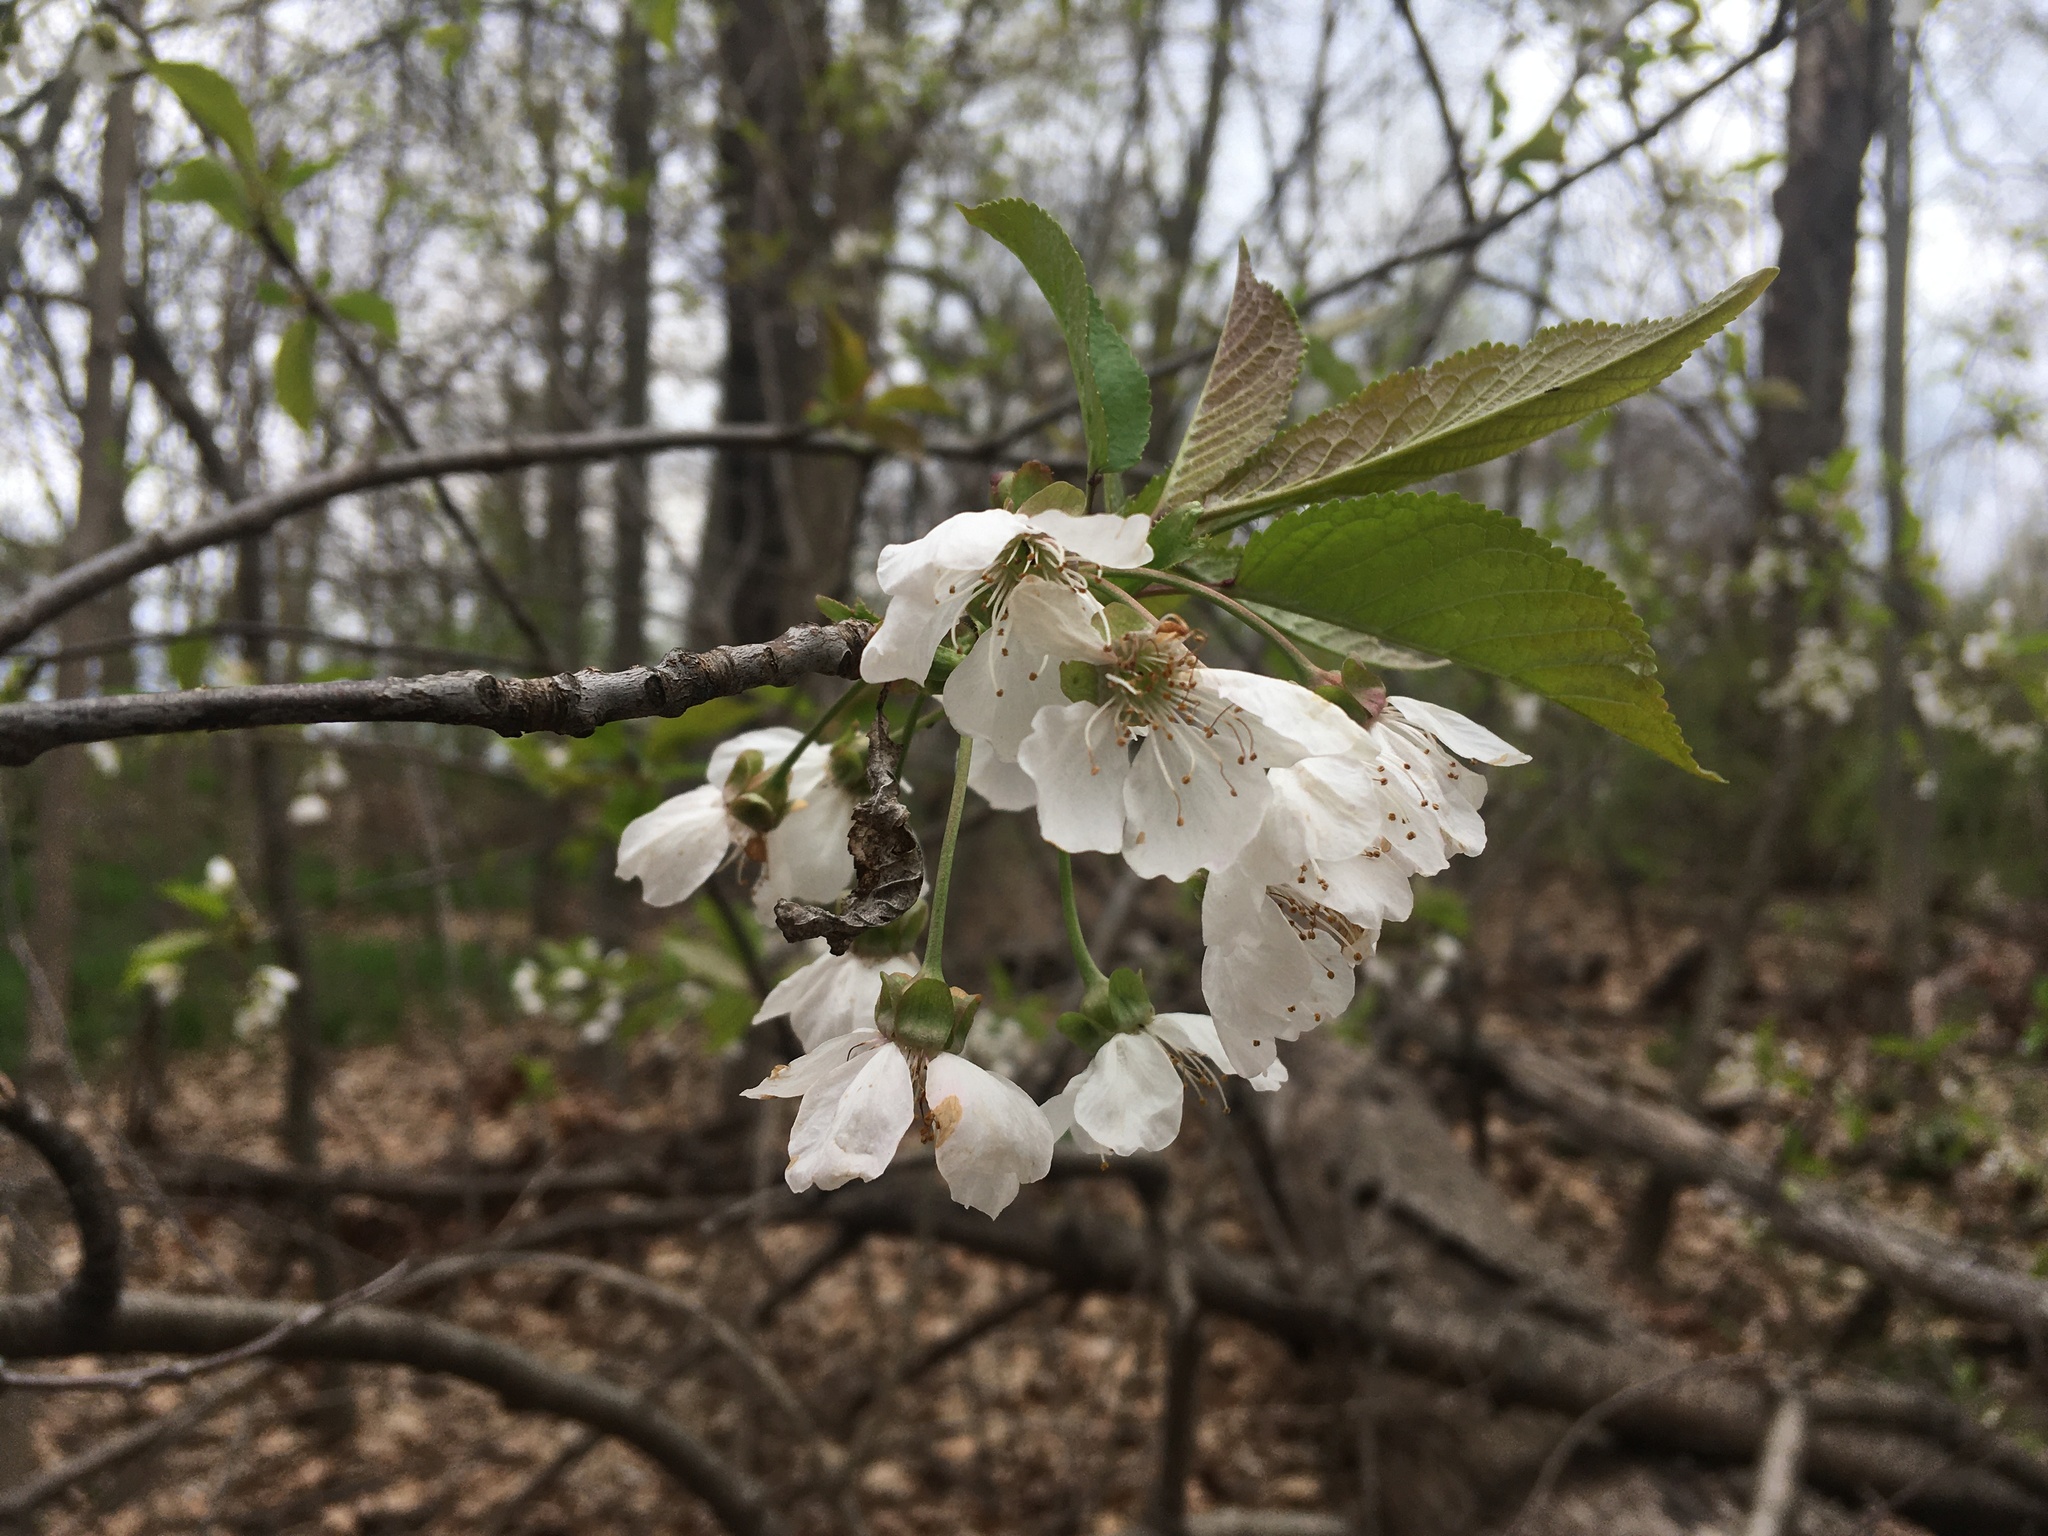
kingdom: Plantae
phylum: Tracheophyta
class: Magnoliopsida
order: Rosales
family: Rosaceae
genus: Prunus
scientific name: Prunus avium
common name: Sweet cherry
